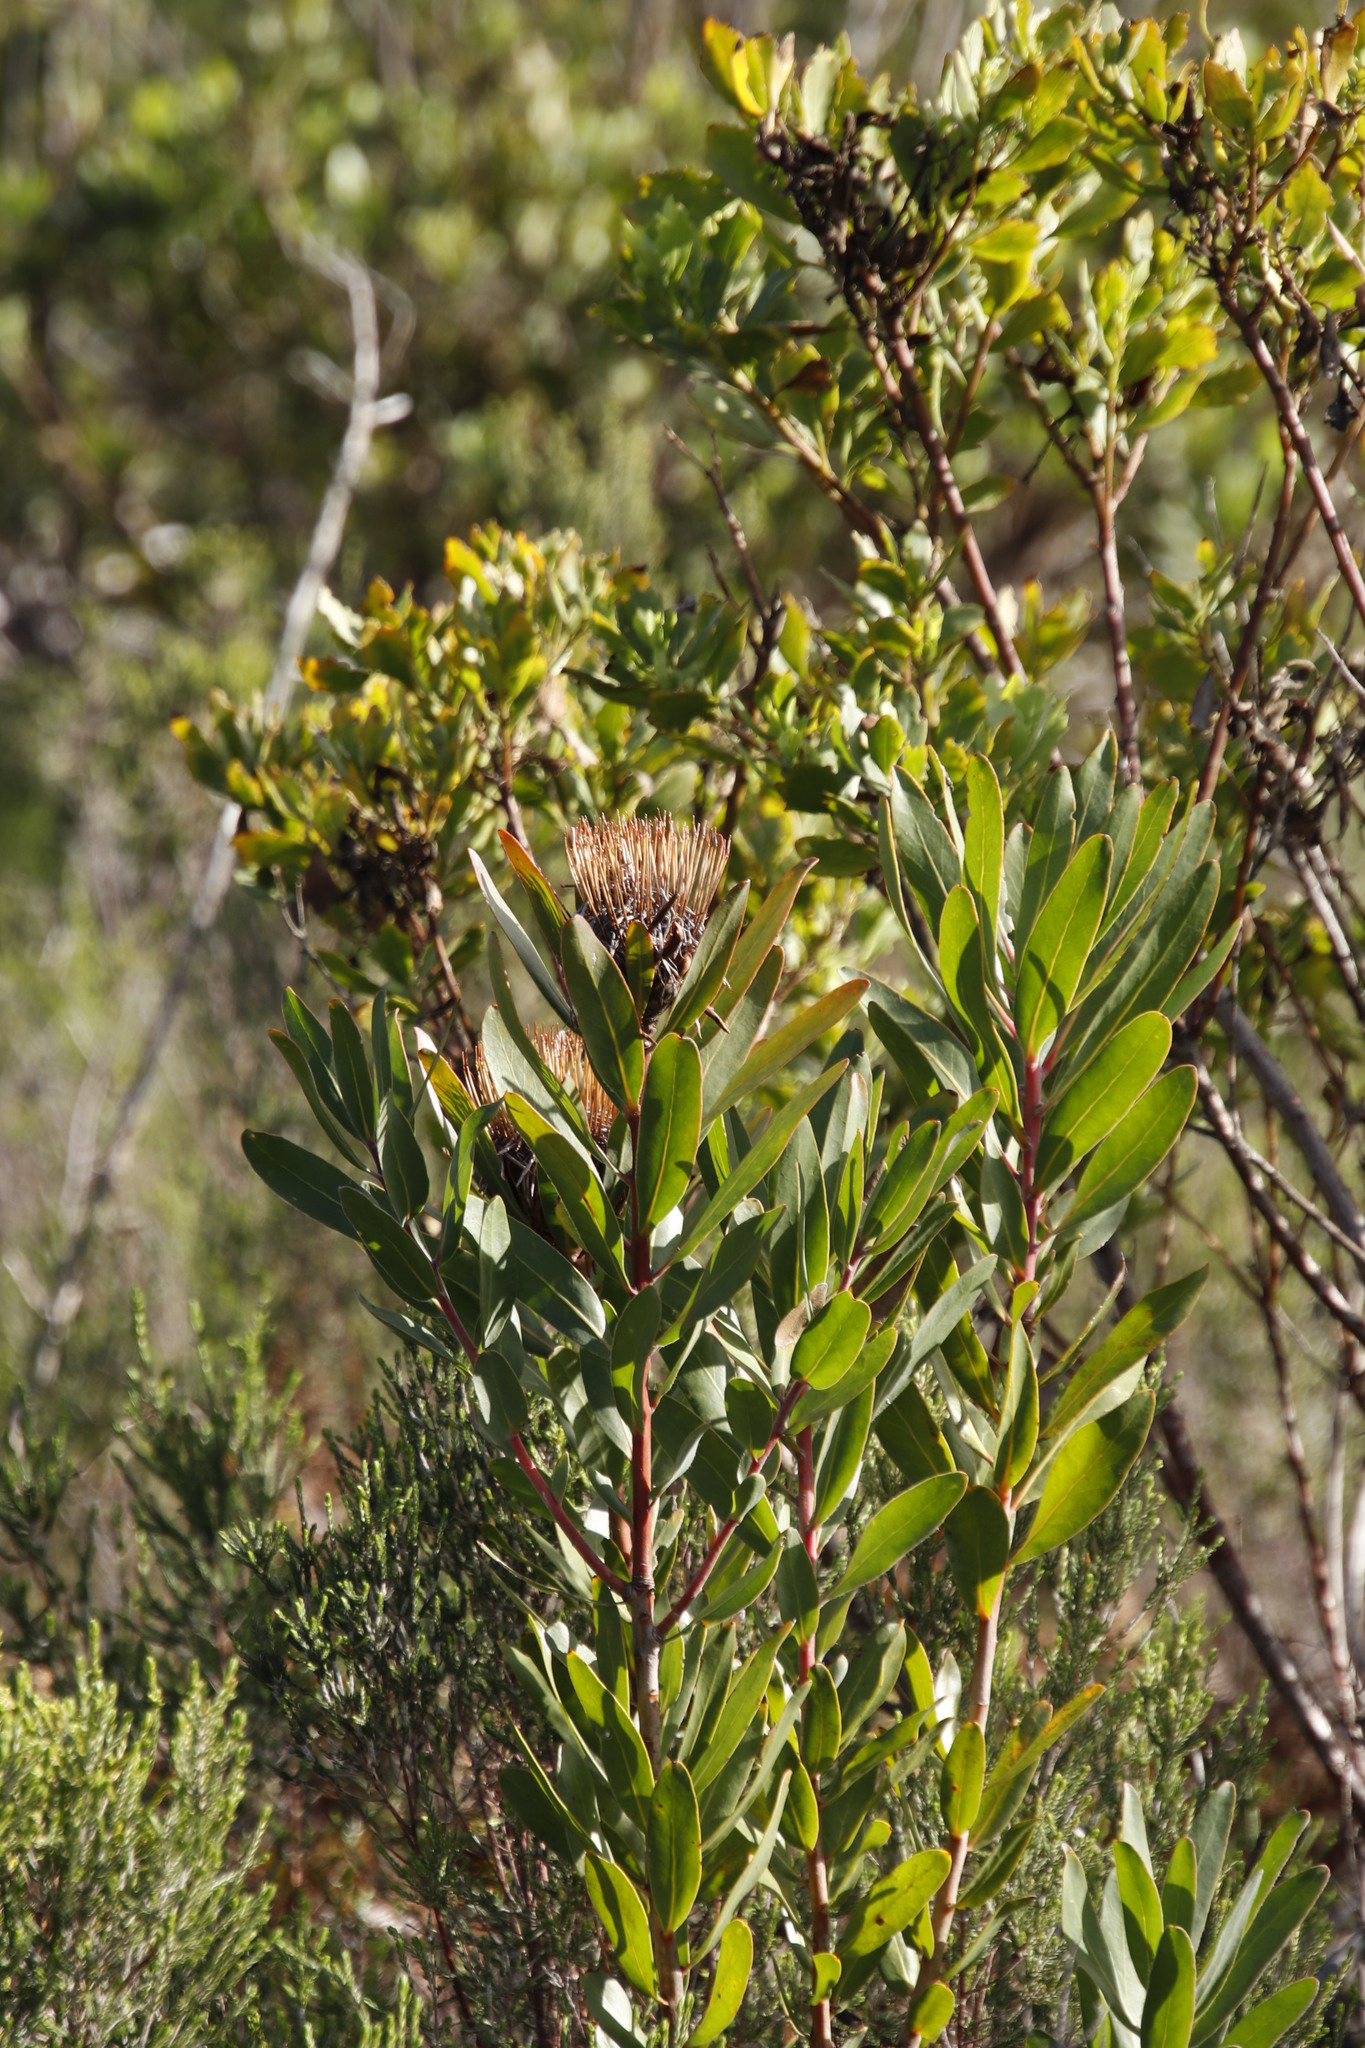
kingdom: Plantae
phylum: Tracheophyta
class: Magnoliopsida
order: Proteales
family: Proteaceae
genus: Protea
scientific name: Protea susannae
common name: Foetid-leaf sugarbush
